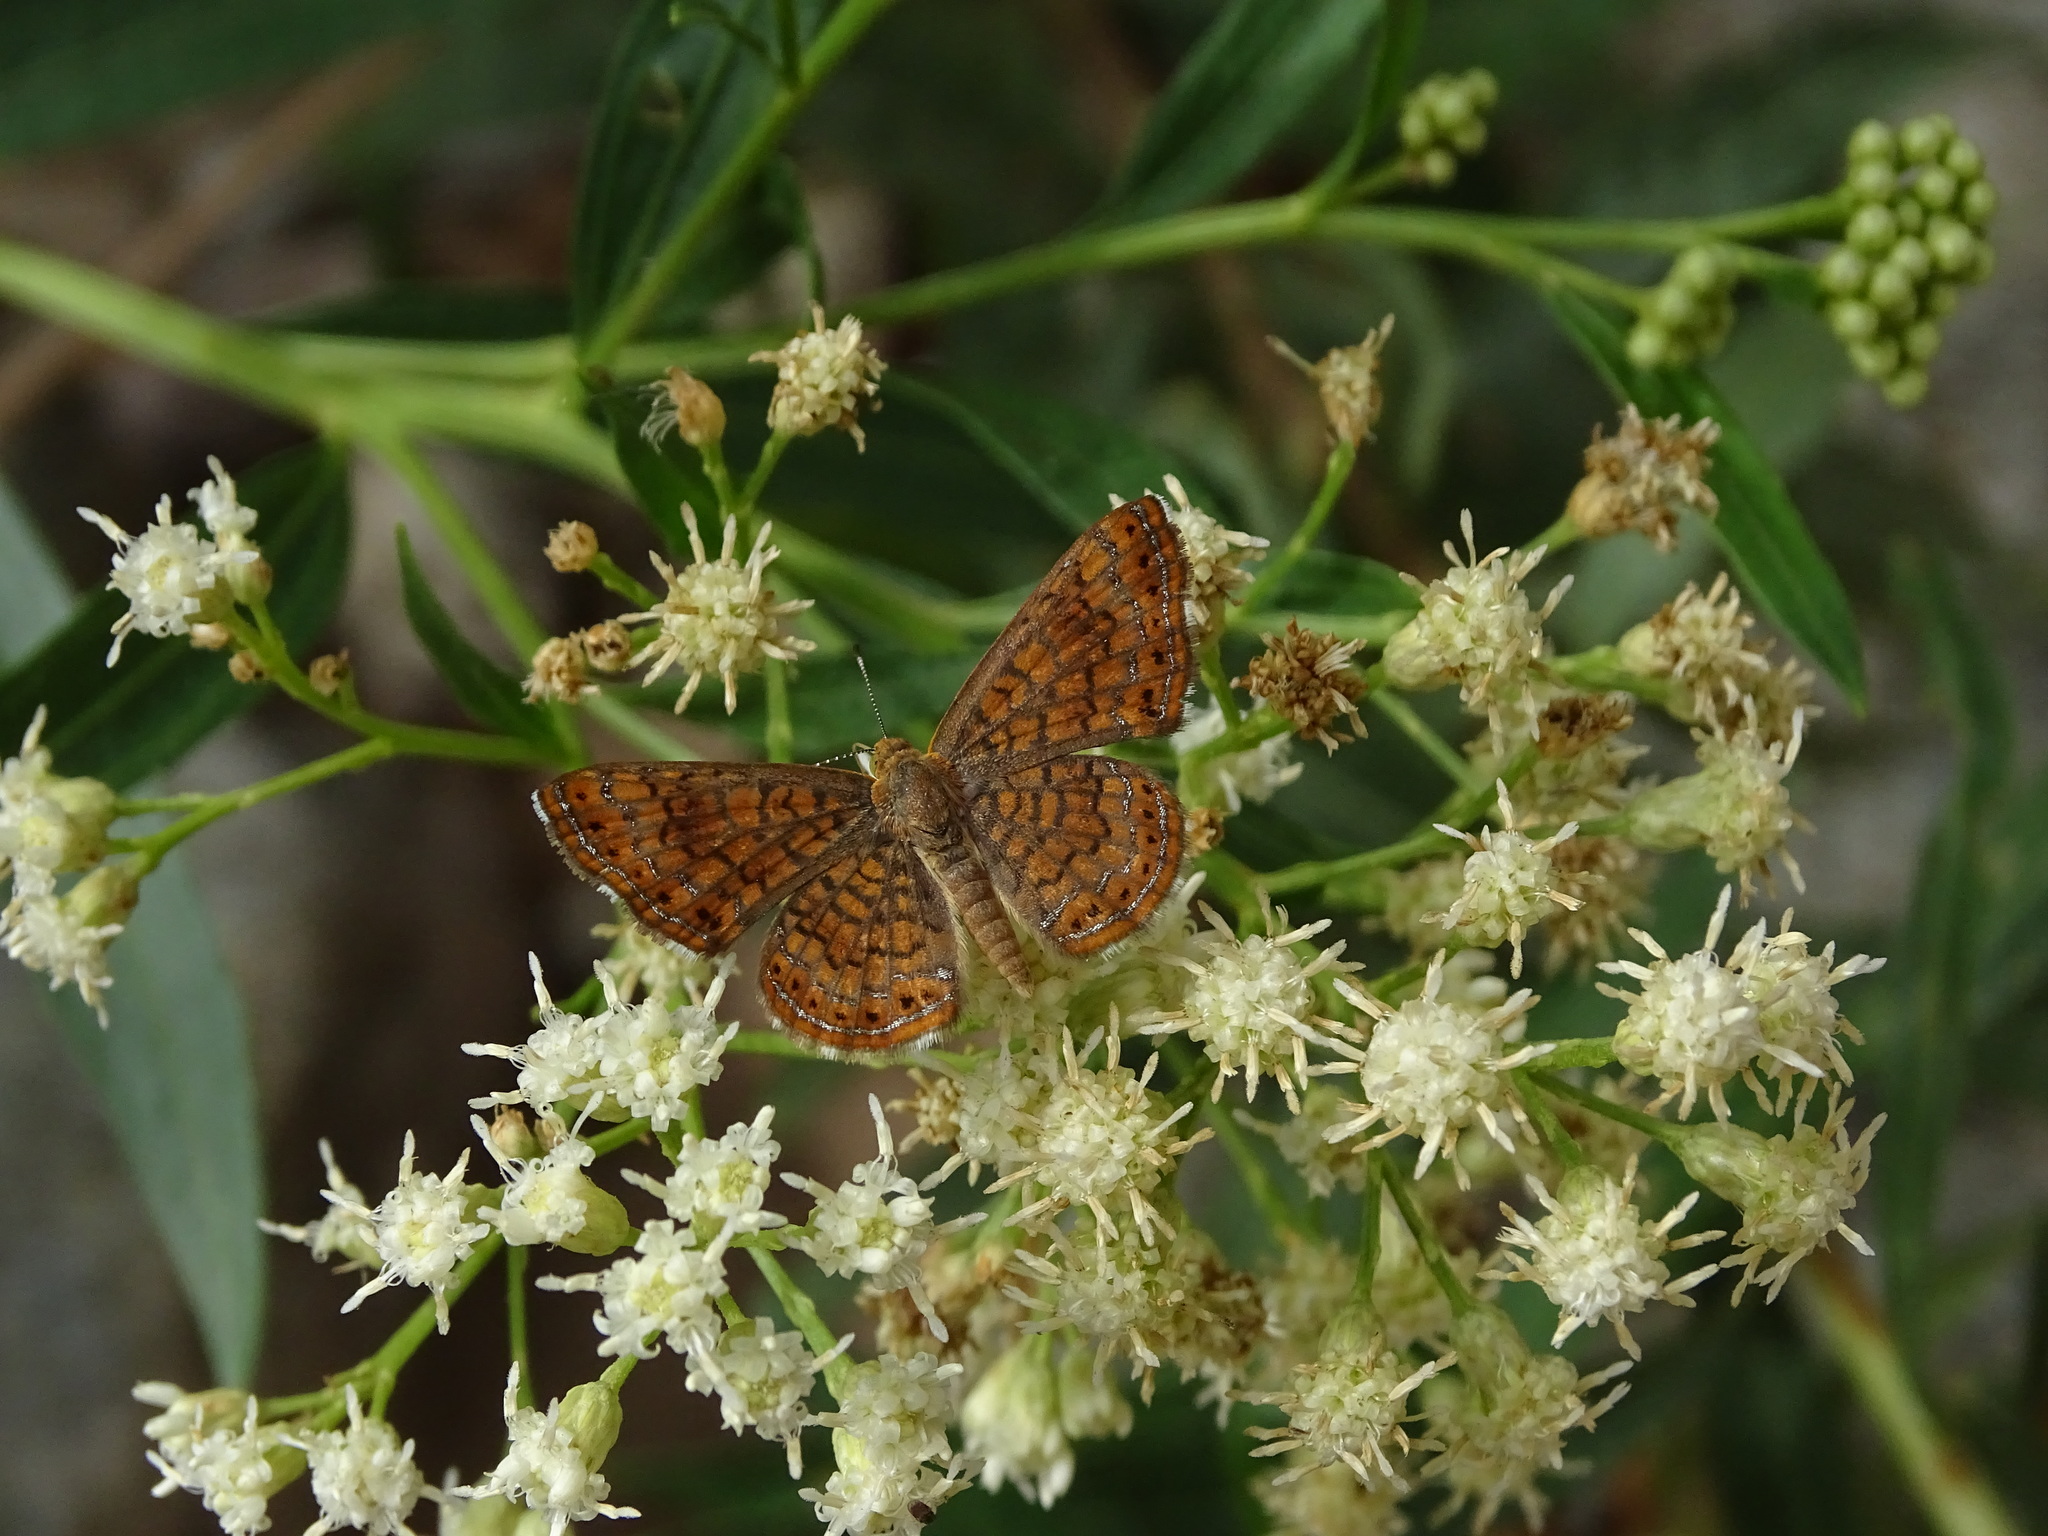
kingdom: Animalia
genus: Calephelis
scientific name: Calephelis arizonensis
